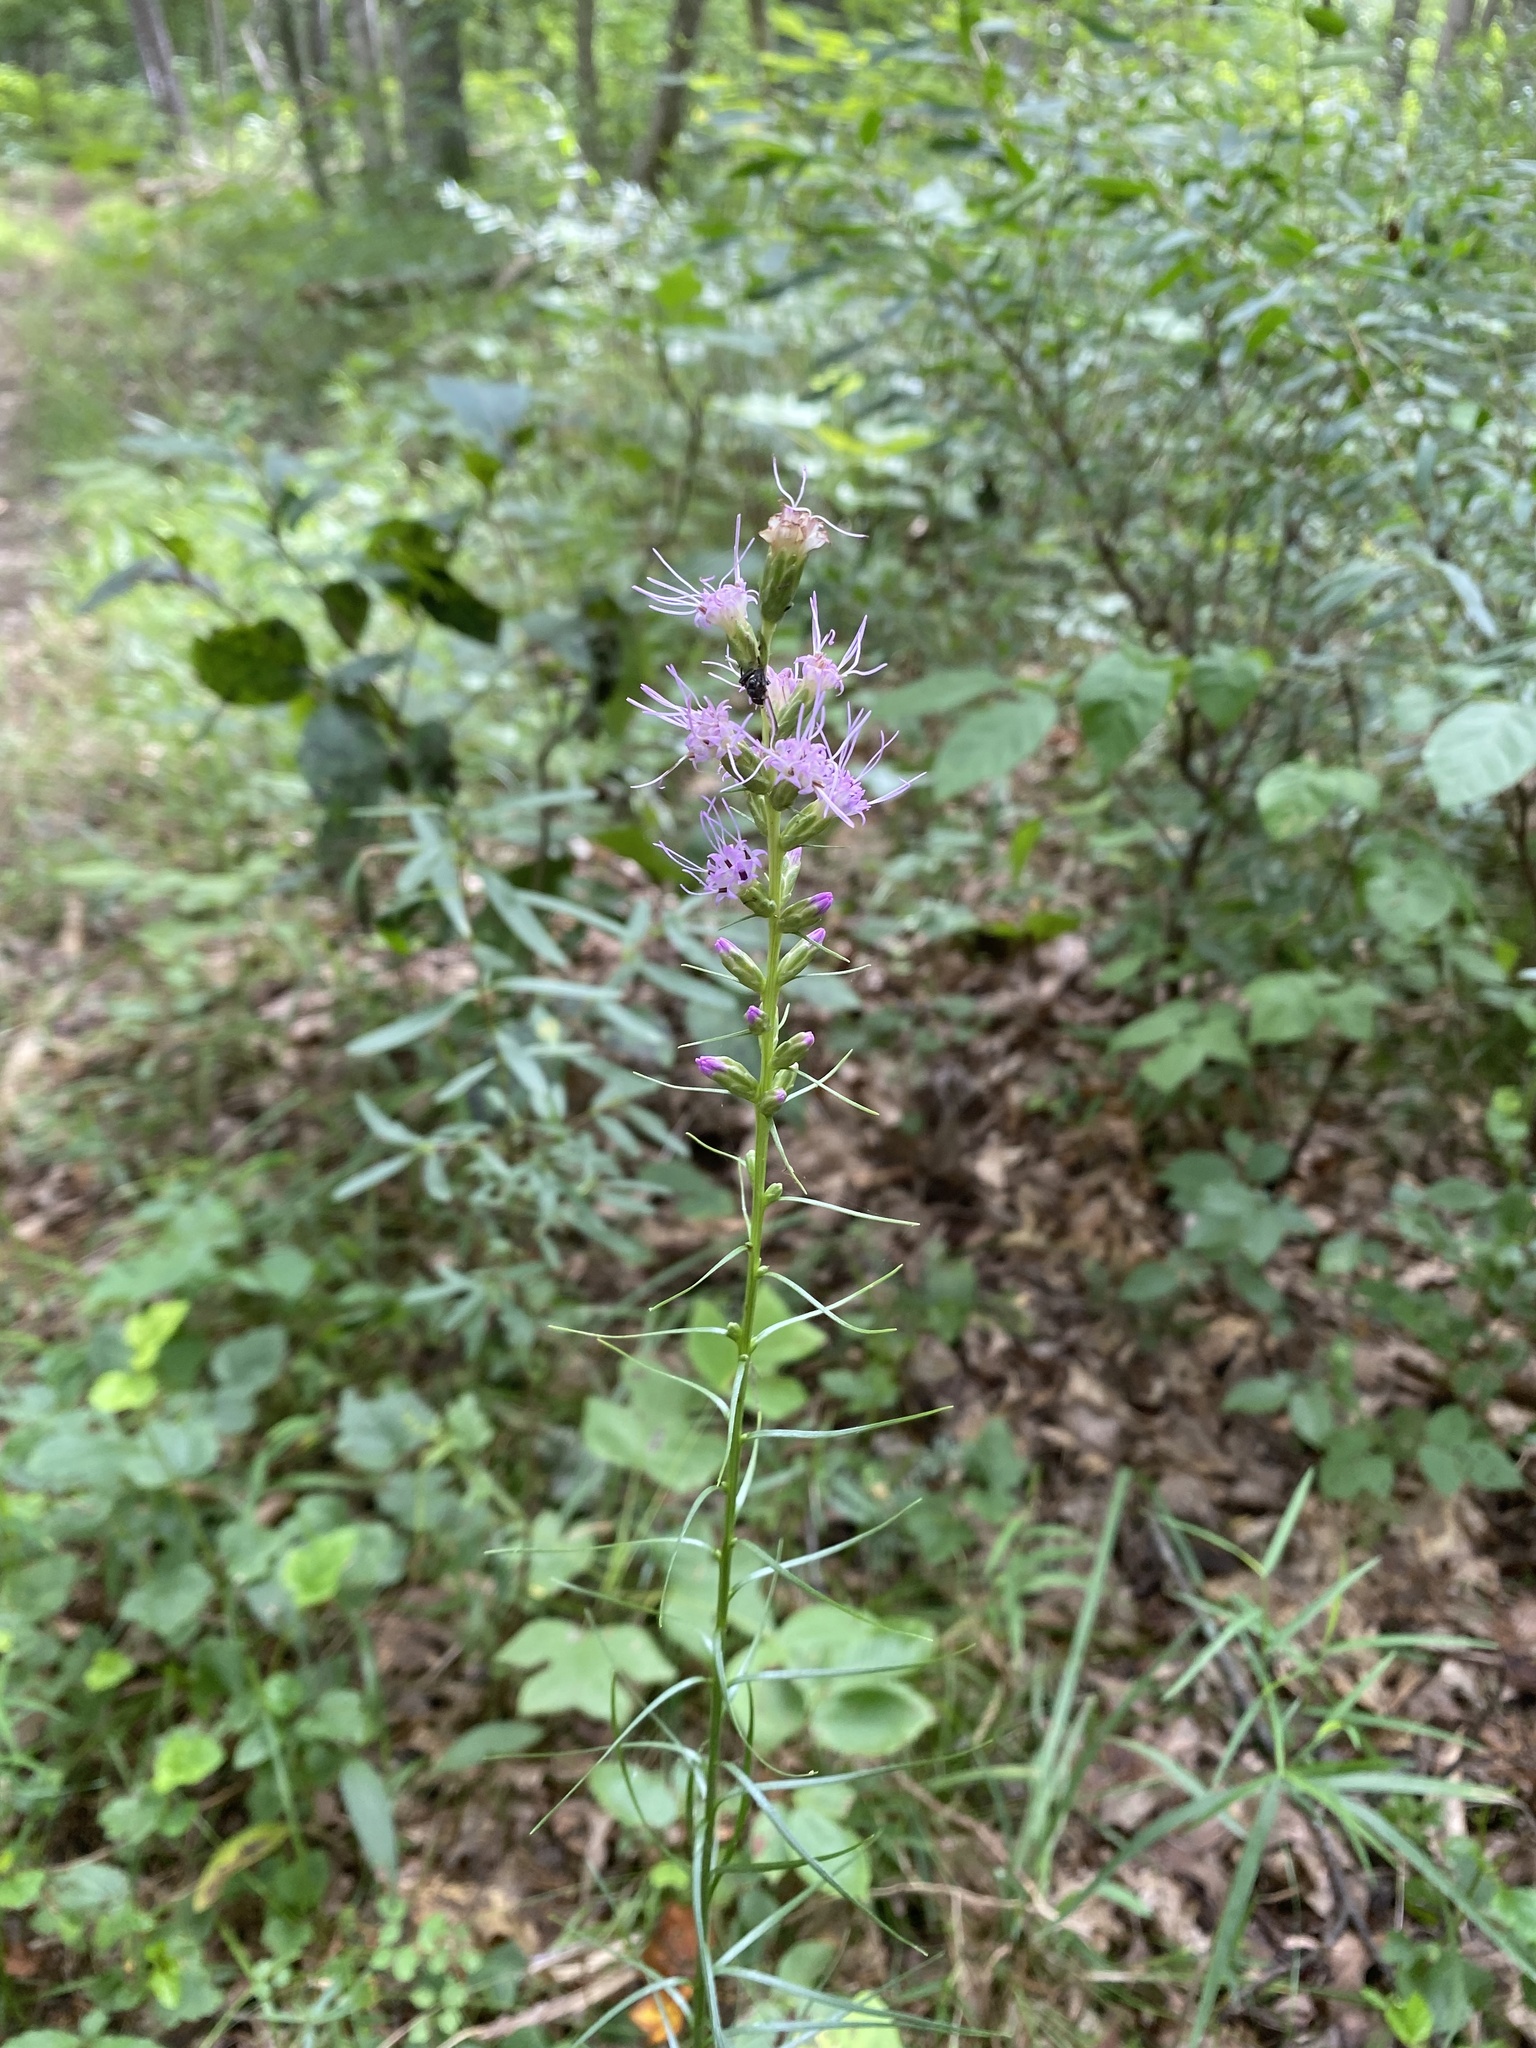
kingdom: Plantae
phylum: Tracheophyta
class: Magnoliopsida
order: Asterales
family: Asteraceae
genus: Liatris
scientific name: Liatris spicata
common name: Florist gayfeather
